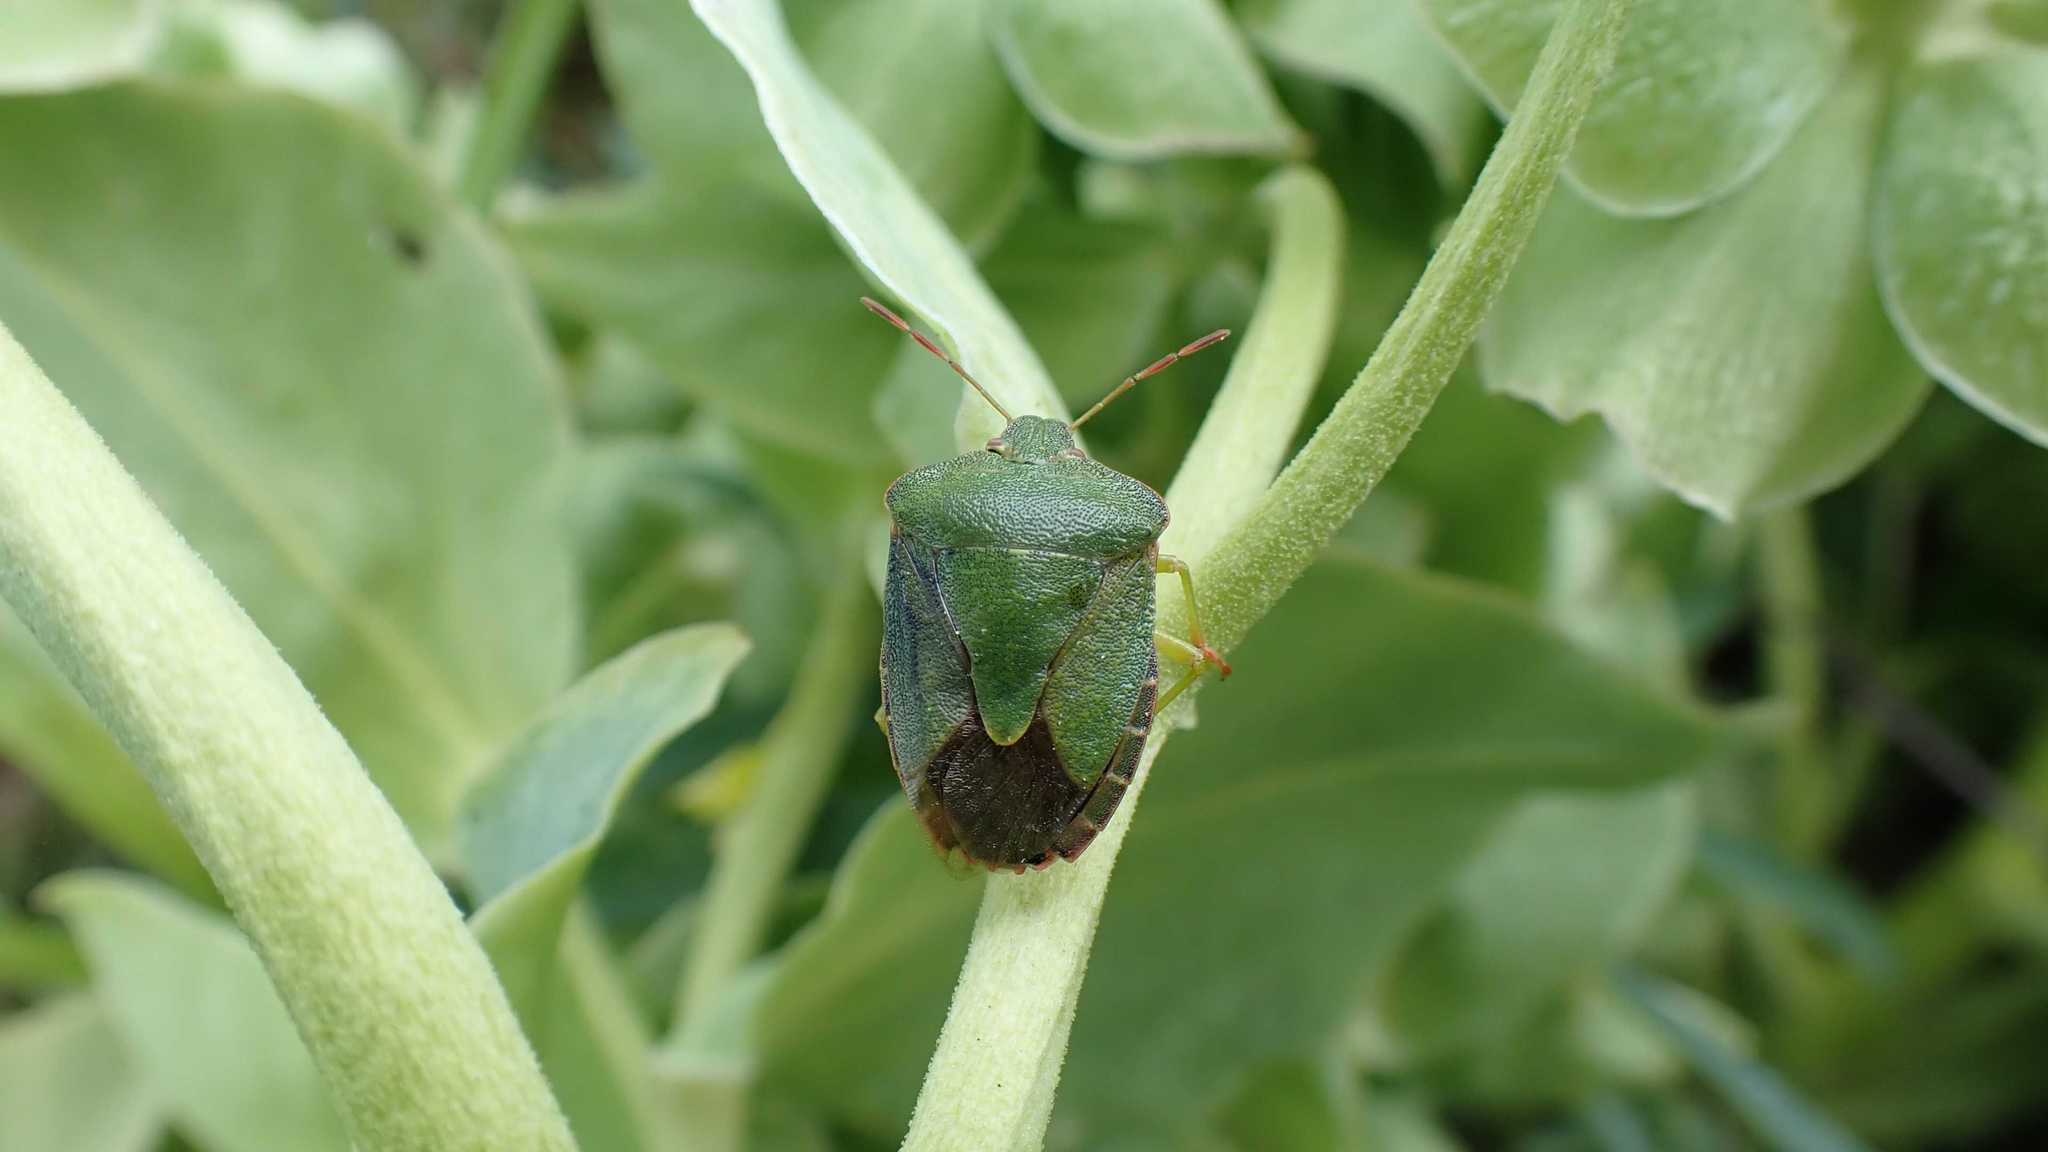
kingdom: Animalia
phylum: Arthropoda
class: Insecta
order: Hemiptera
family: Pentatomidae
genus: Palomena
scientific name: Palomena prasina
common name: Green shieldbug
